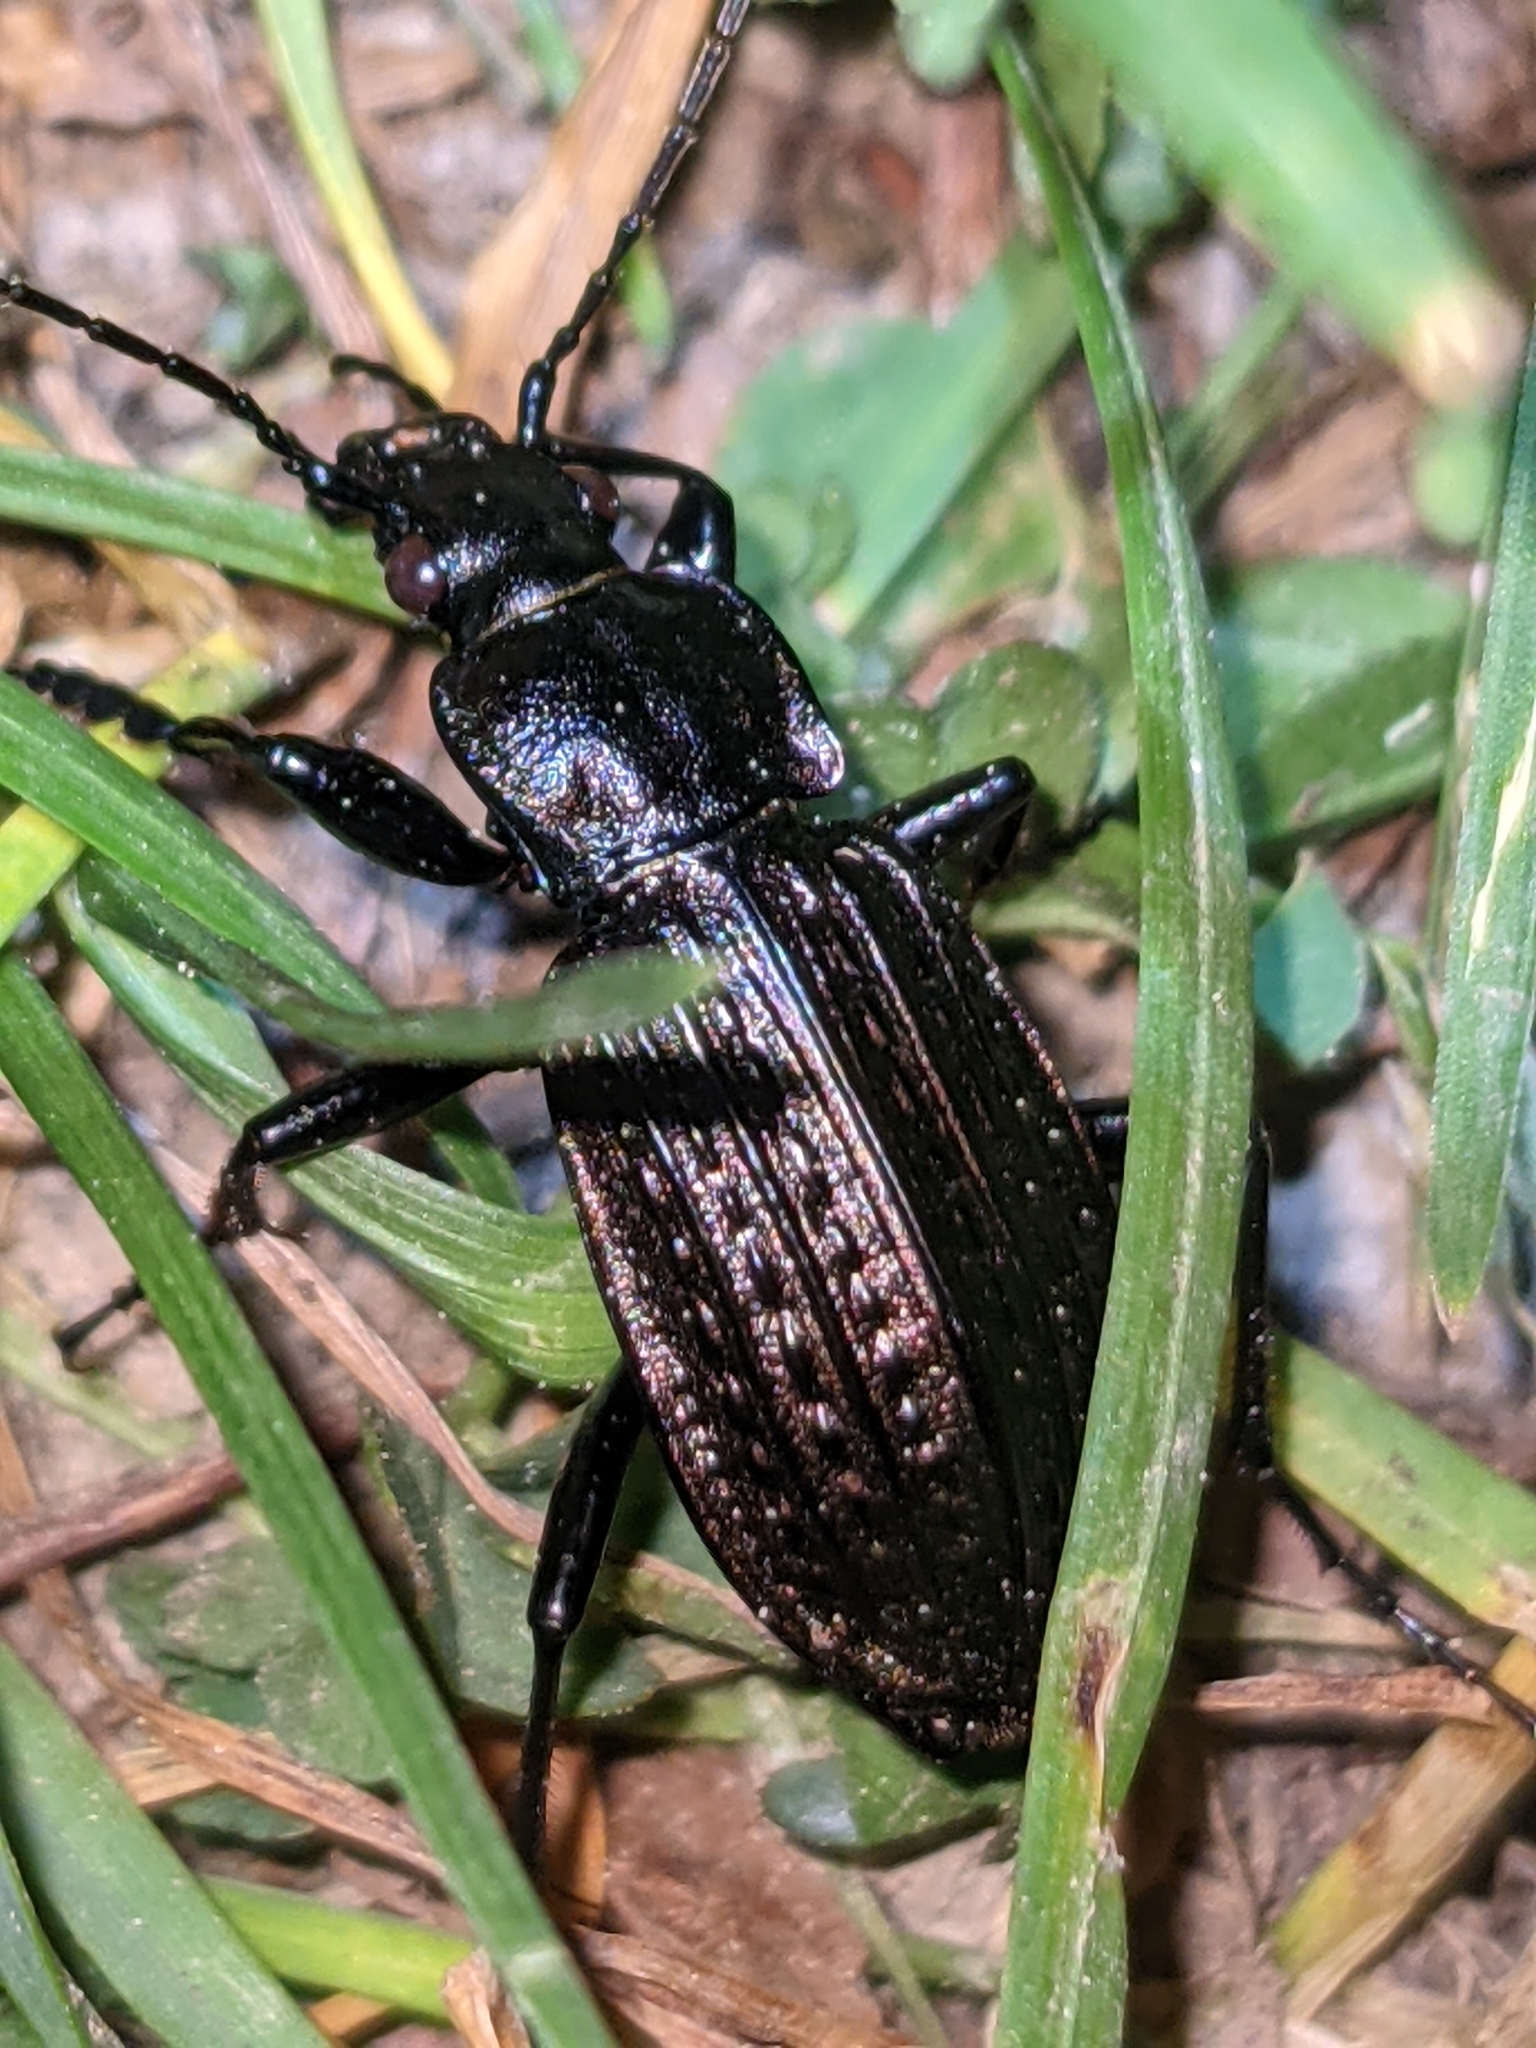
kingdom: Animalia
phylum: Arthropoda
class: Insecta
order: Coleoptera
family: Carabidae
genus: Carabus
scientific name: Carabus granulatus
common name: Granulate ground beetle
